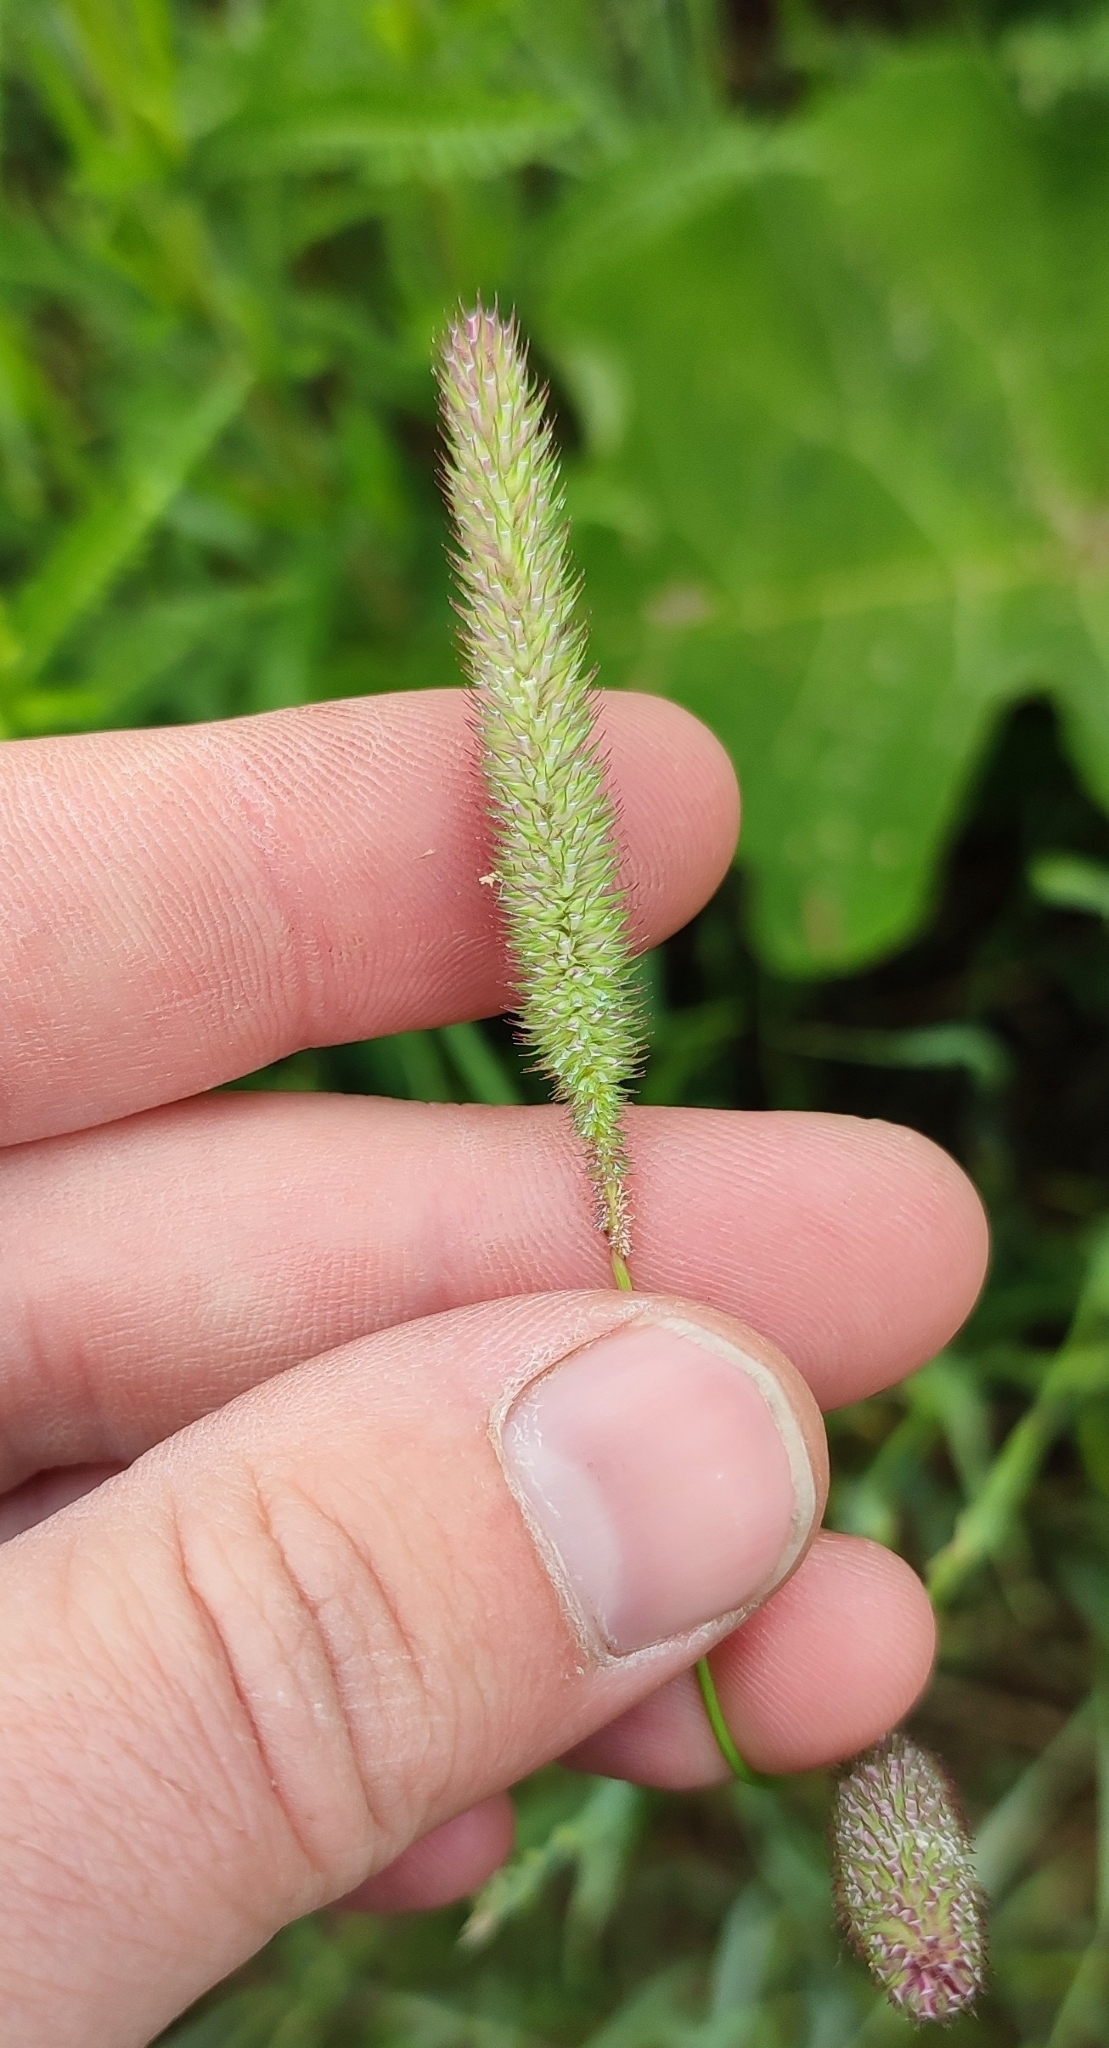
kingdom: Plantae
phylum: Tracheophyta
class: Liliopsida
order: Poales
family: Poaceae
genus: Phleum
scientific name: Phleum pratense
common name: Timothy grass
